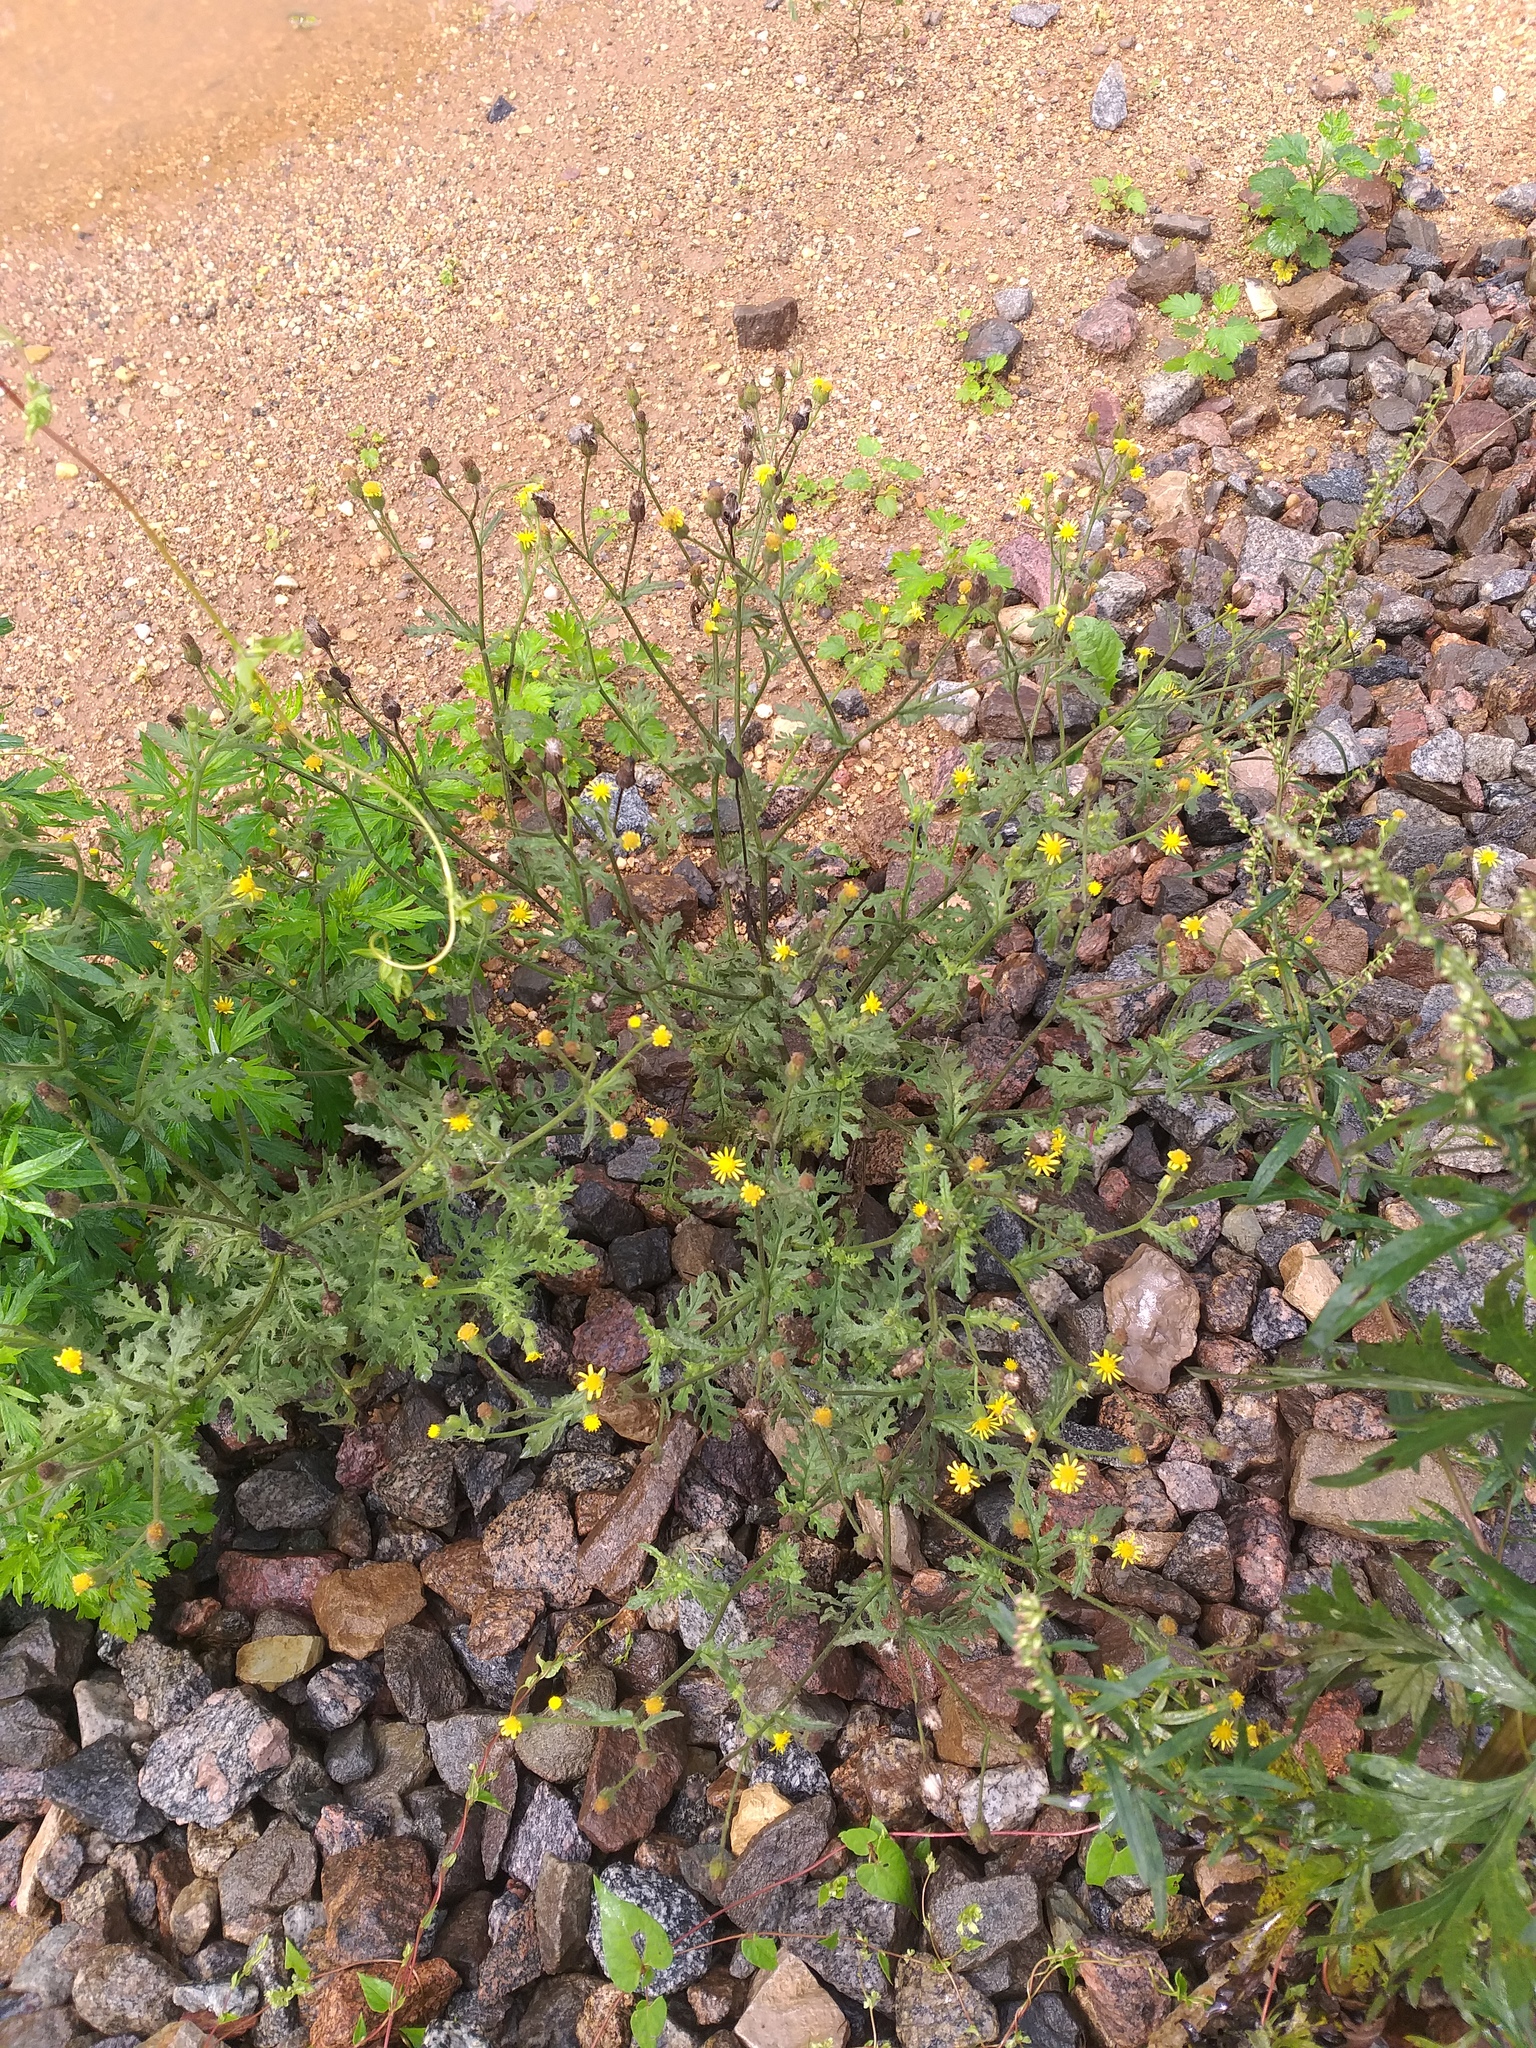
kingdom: Plantae
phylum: Tracheophyta
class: Magnoliopsida
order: Asterales
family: Asteraceae
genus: Senecio
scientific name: Senecio viscosus
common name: Sticky groundsel
